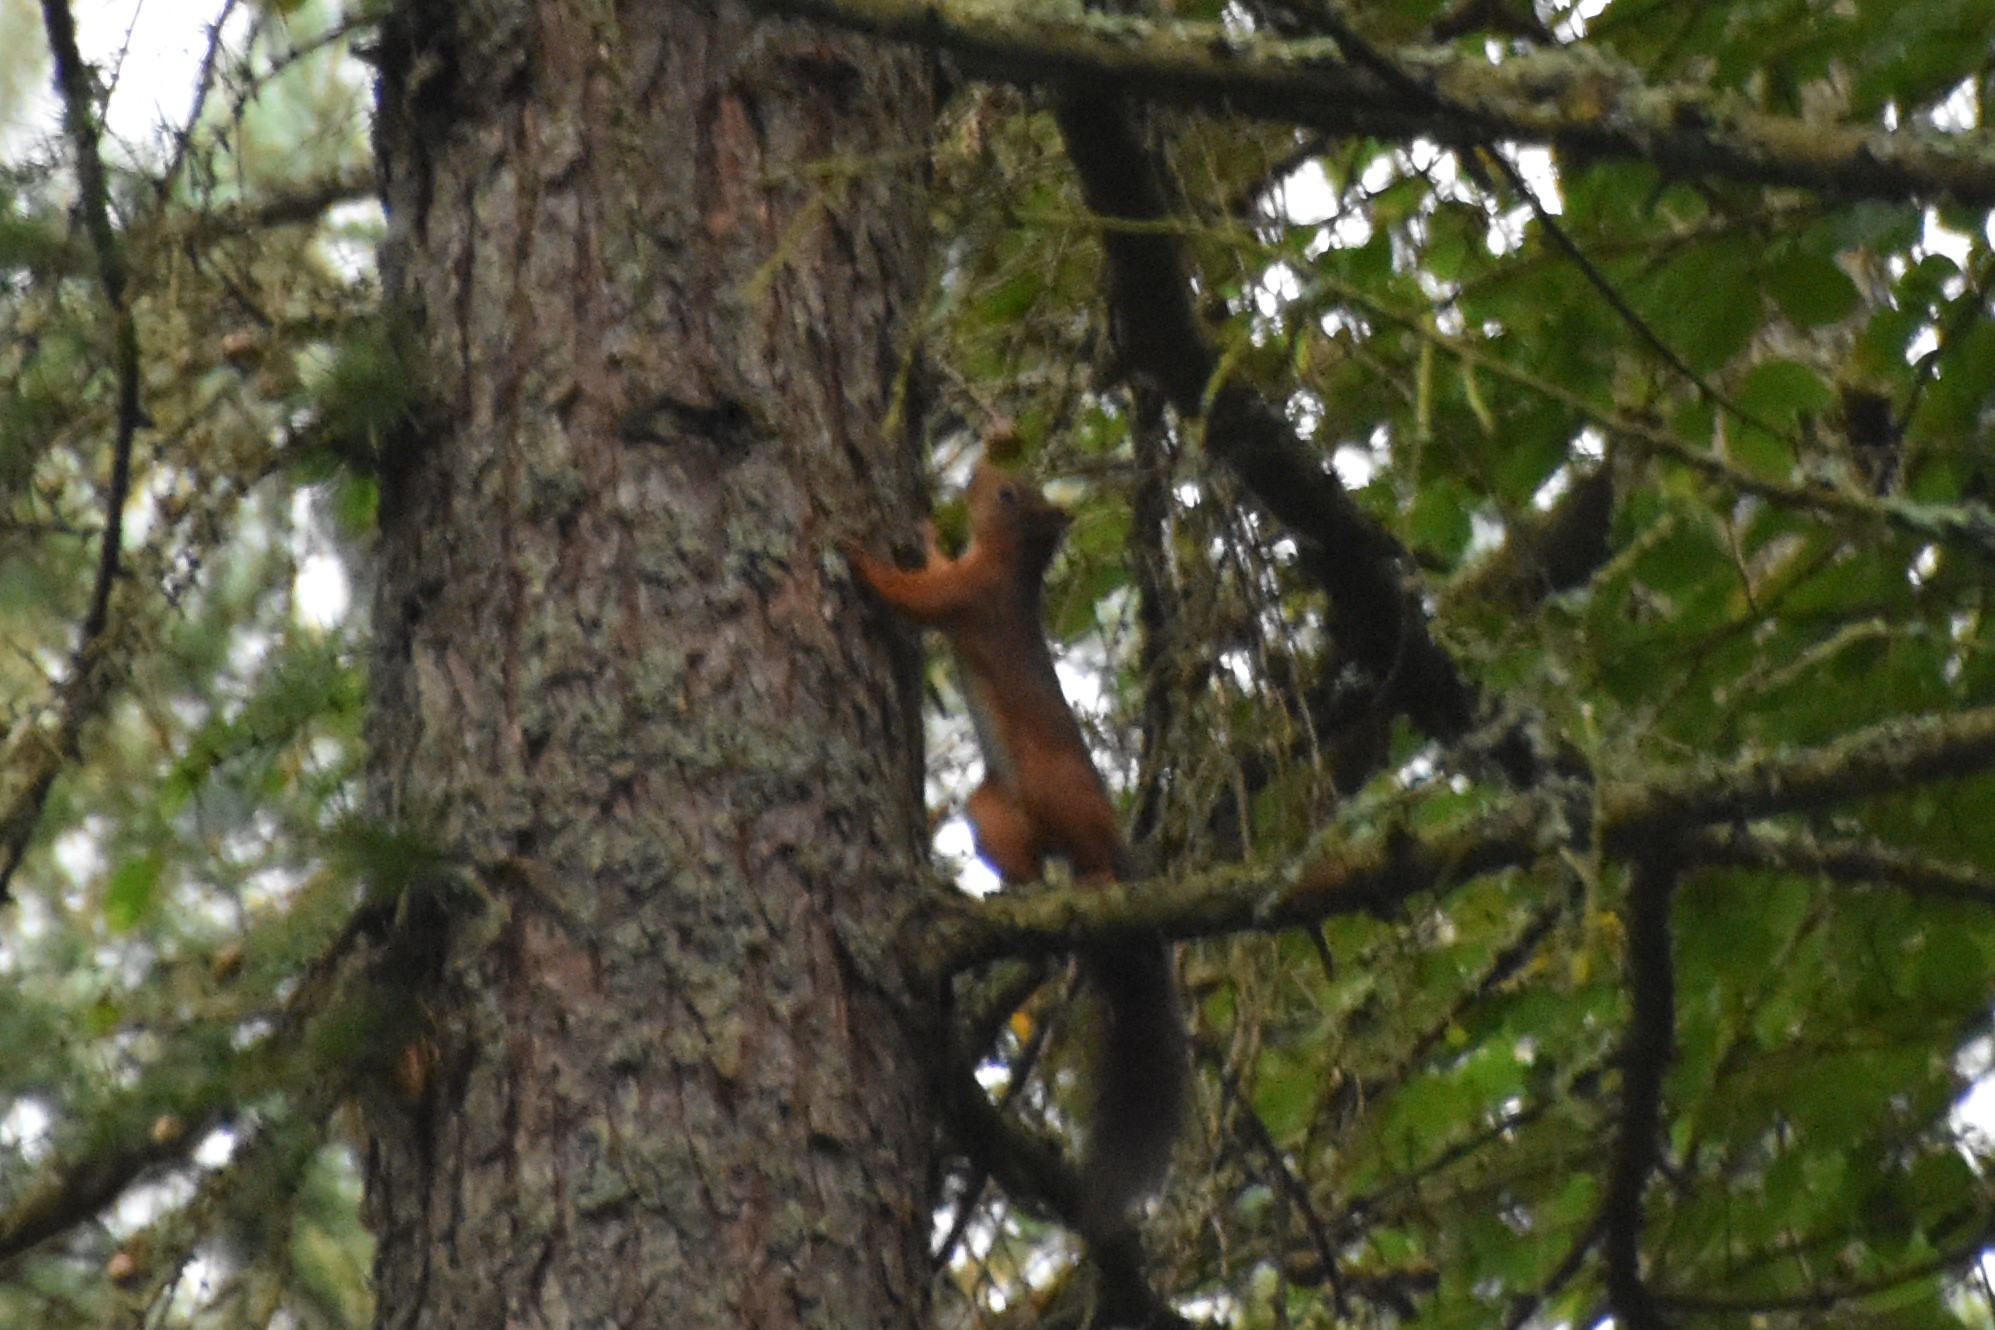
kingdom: Animalia
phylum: Chordata
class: Mammalia
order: Rodentia
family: Sciuridae
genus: Sciurus
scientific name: Sciurus vulgaris
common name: Eurasian red squirrel
